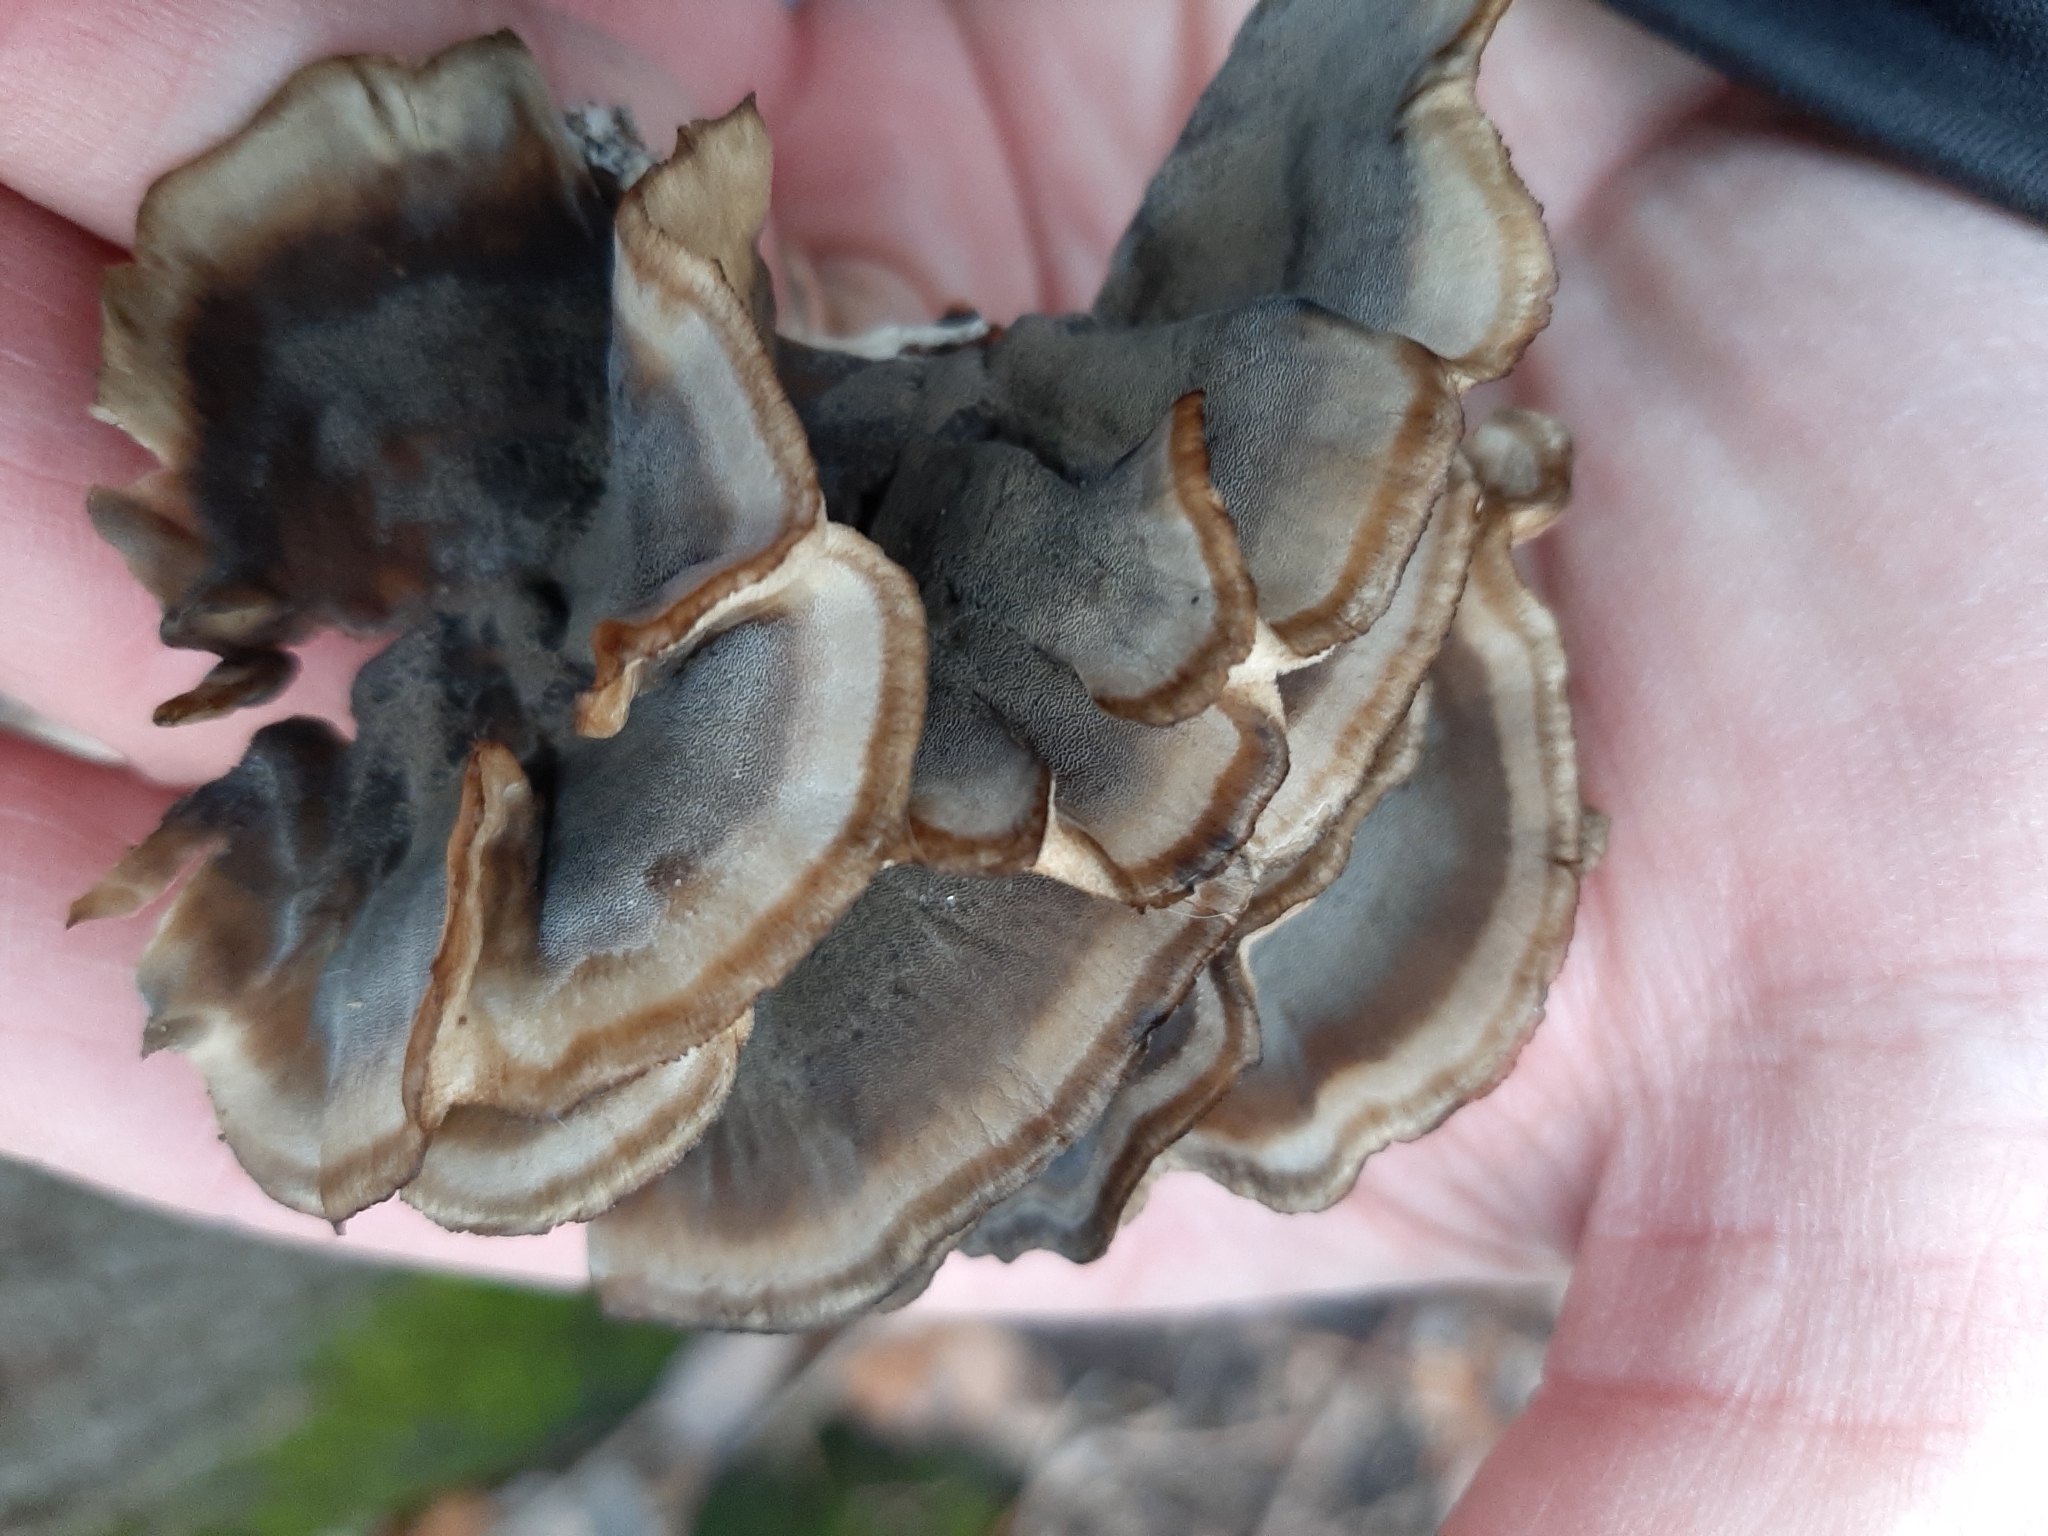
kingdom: Fungi
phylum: Basidiomycota
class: Agaricomycetes
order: Polyporales
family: Phanerochaetaceae
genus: Bjerkandera
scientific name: Bjerkandera adusta
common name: Smoky bracket
